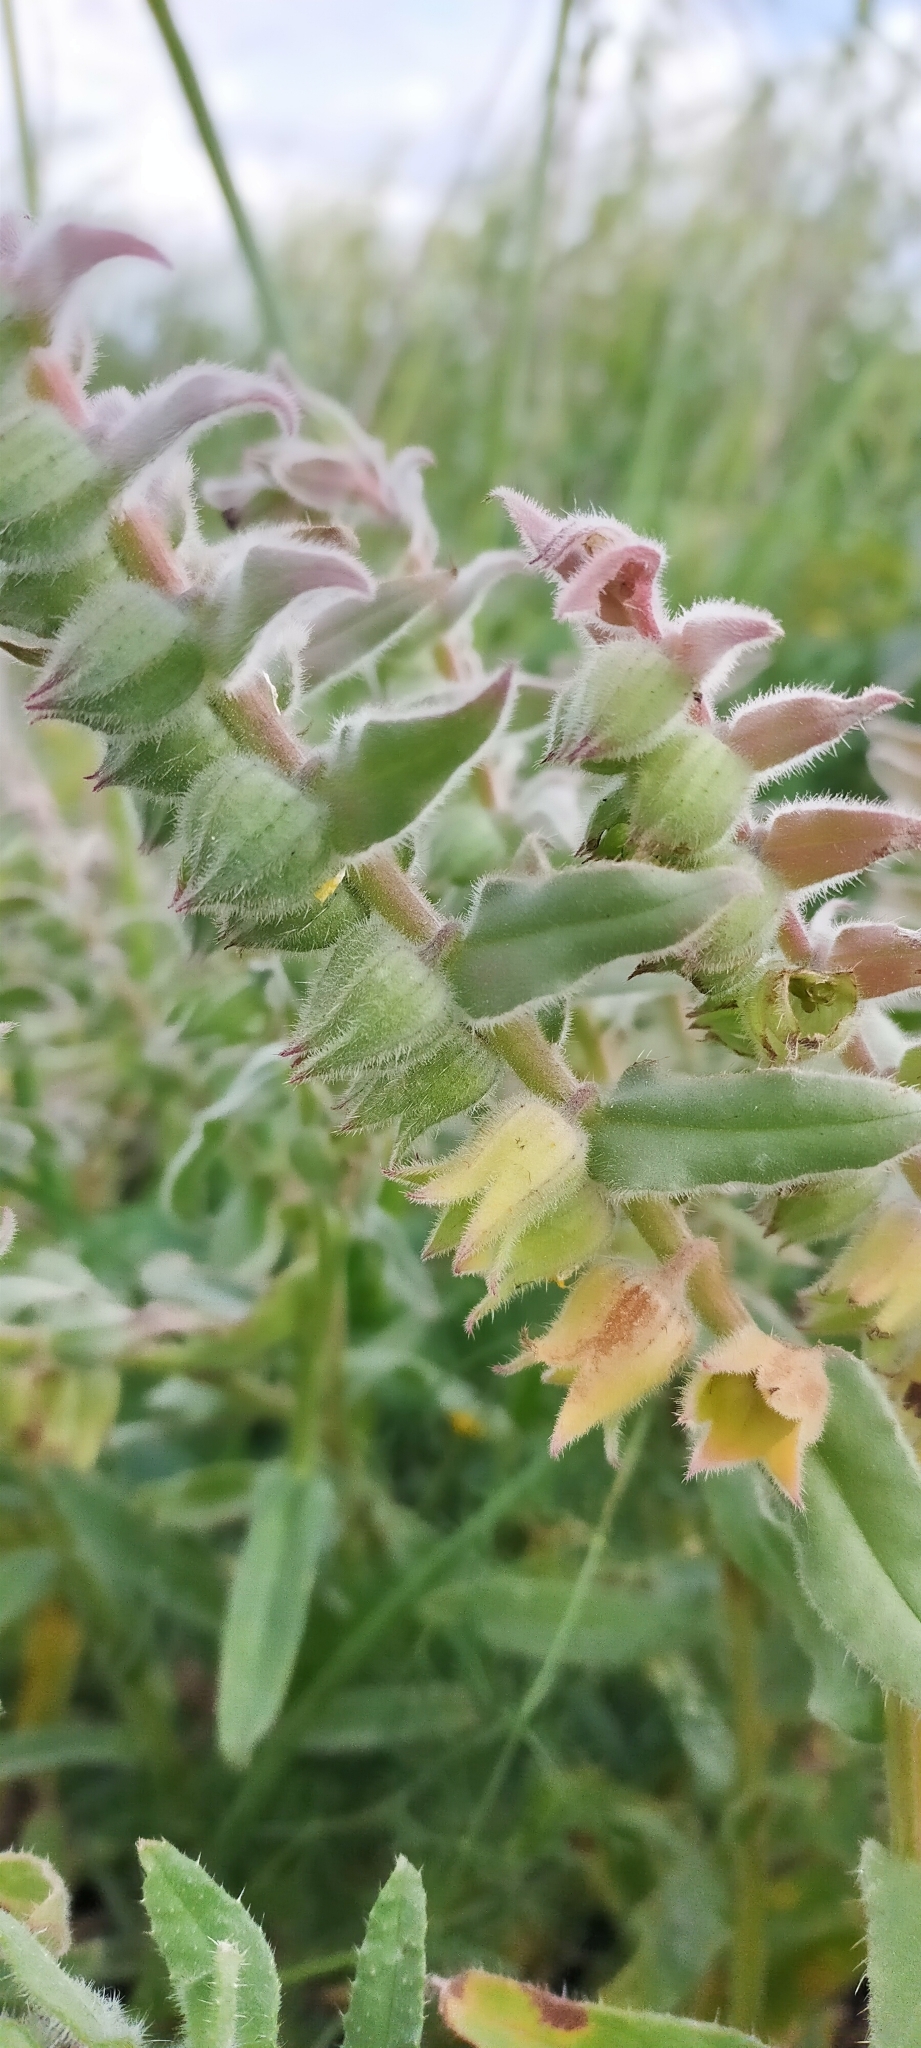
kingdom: Plantae
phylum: Tracheophyta
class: Magnoliopsida
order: Boraginales
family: Boraginaceae
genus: Nonea
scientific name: Nonea vesicaria
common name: Red monkswort
